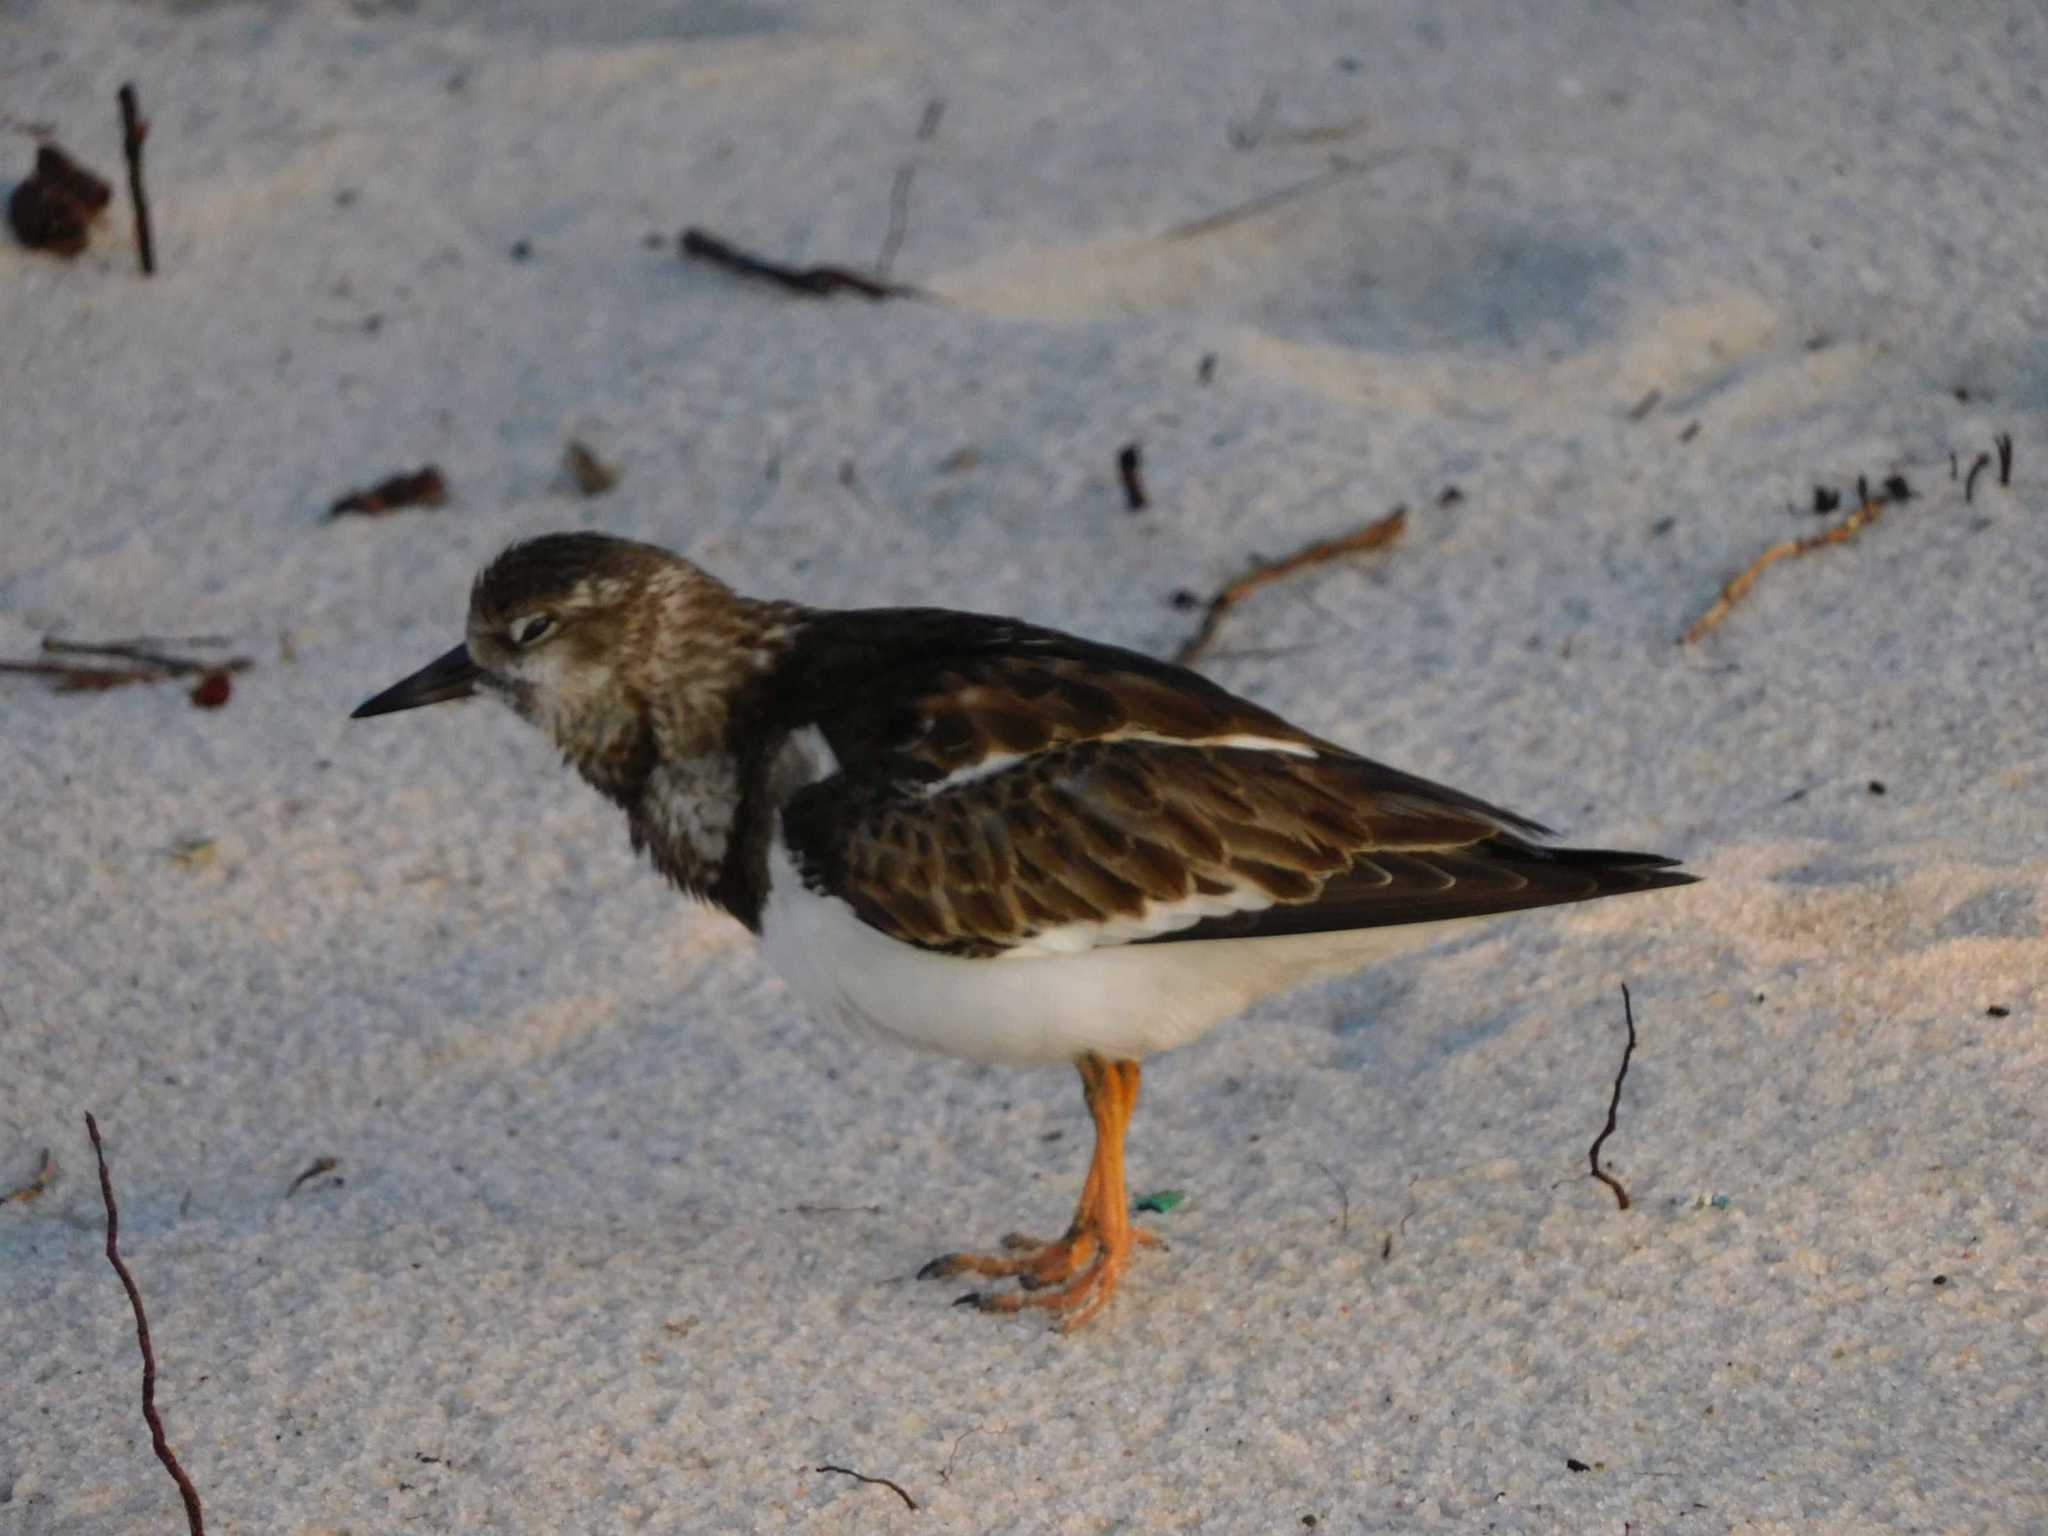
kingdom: Animalia
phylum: Chordata
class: Aves
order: Charadriiformes
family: Scolopacidae
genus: Arenaria
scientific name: Arenaria interpres
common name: Ruddy turnstone
